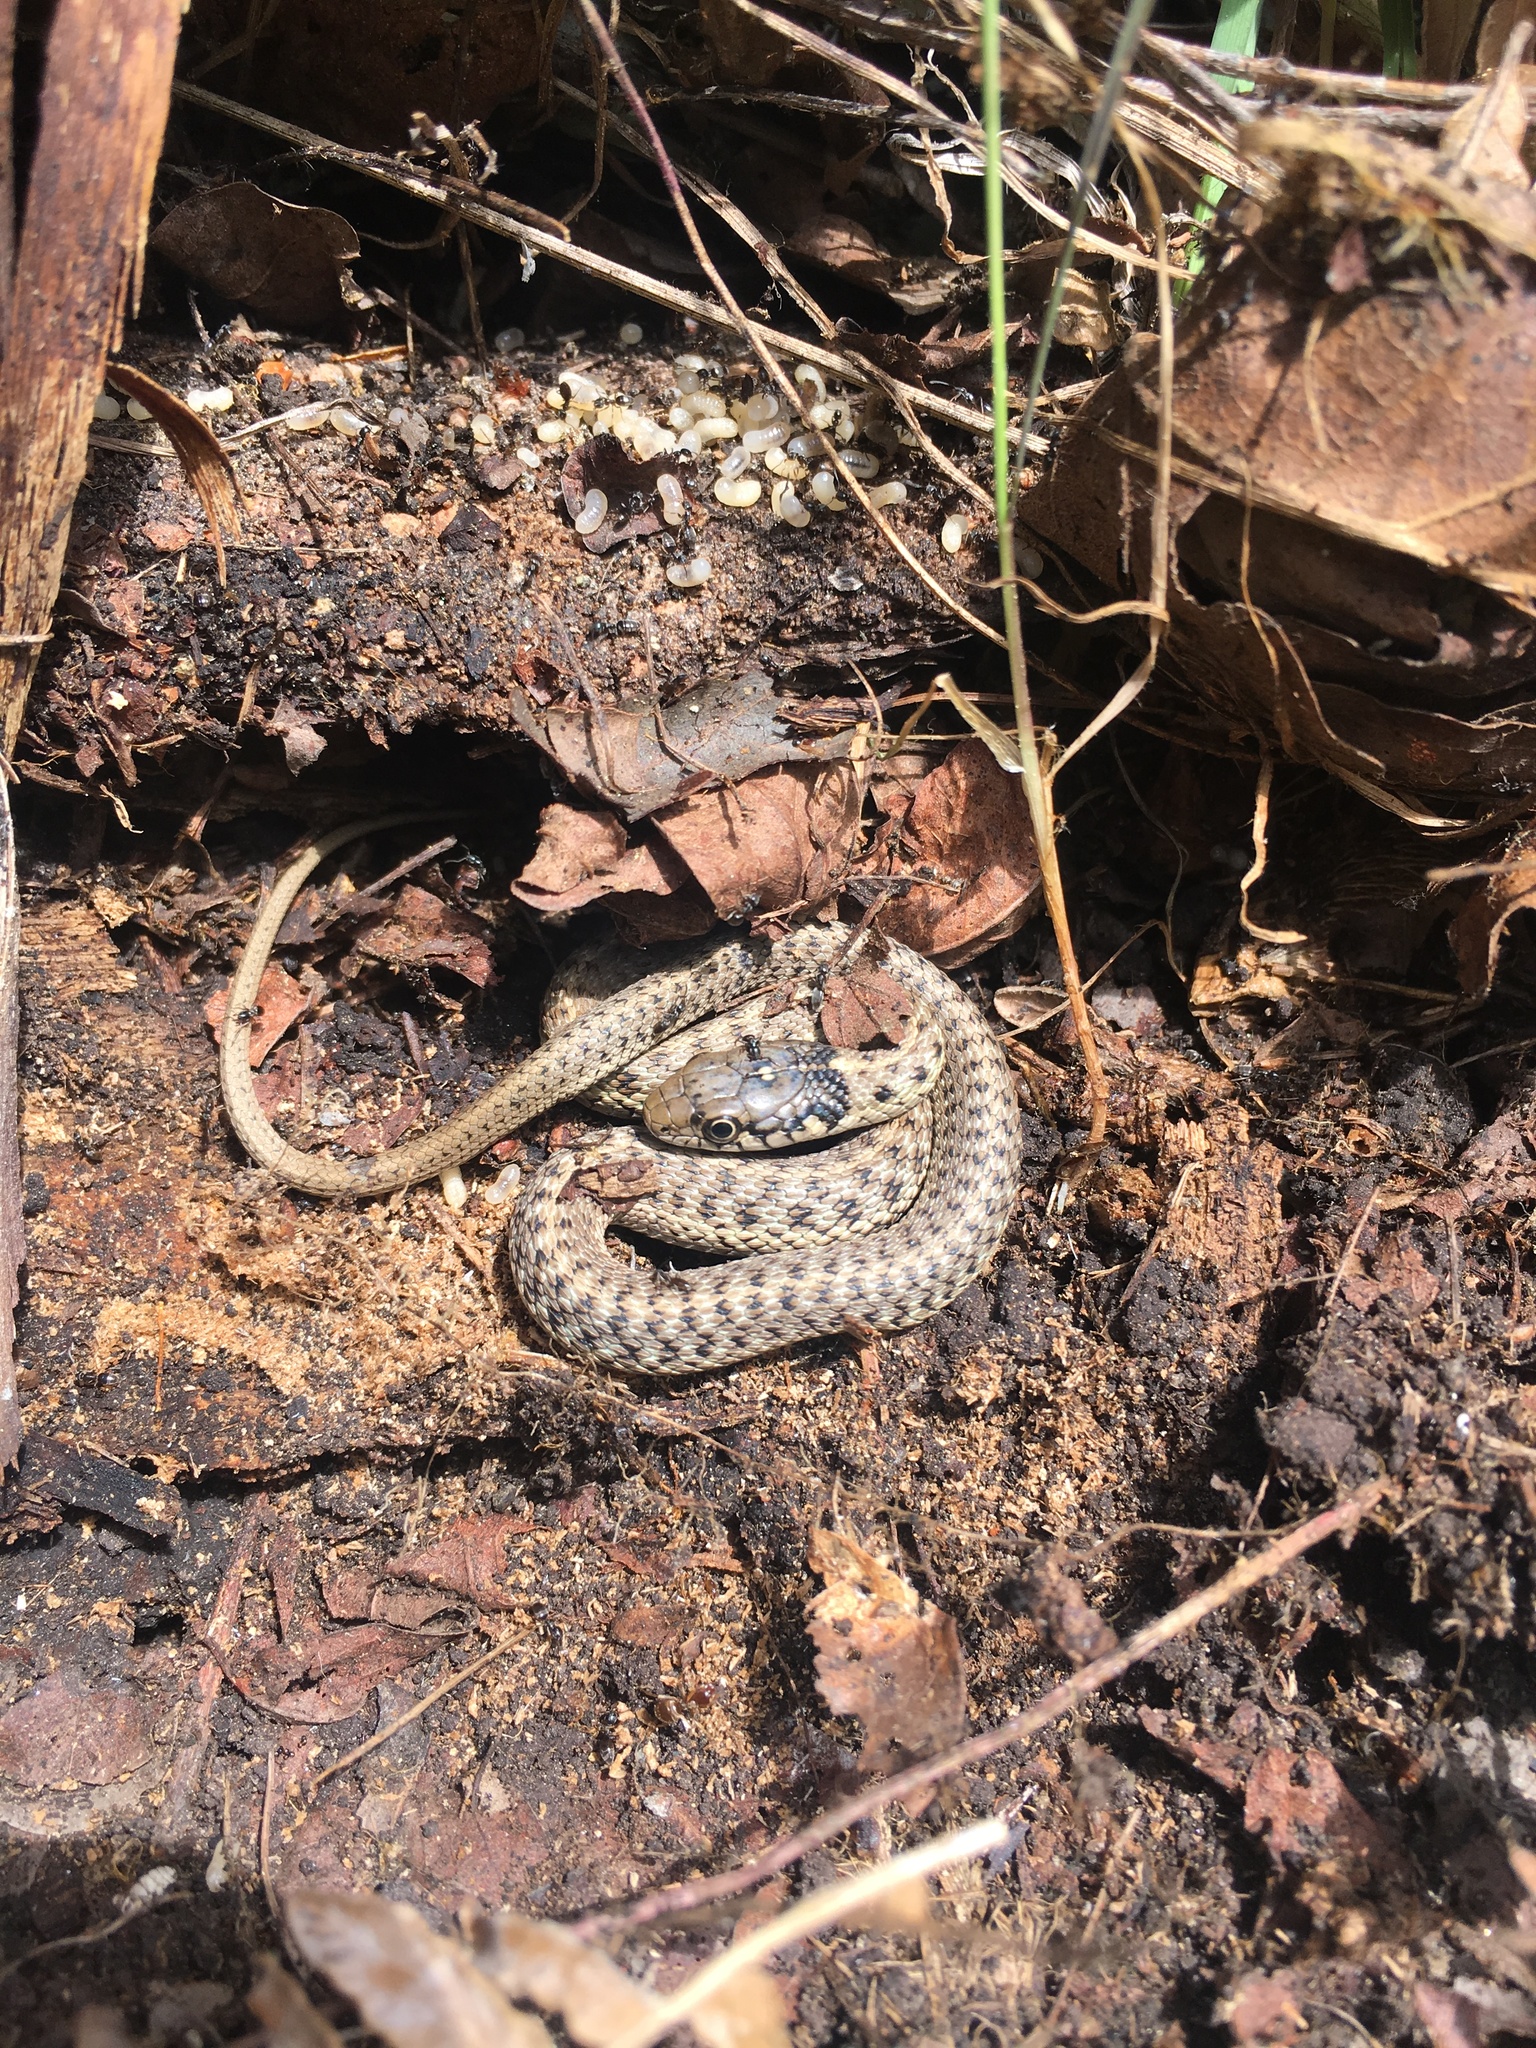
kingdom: Animalia
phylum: Chordata
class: Squamata
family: Colubridae
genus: Thamnophis
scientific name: Thamnophis elegans
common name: Western terrestrial garter snake
